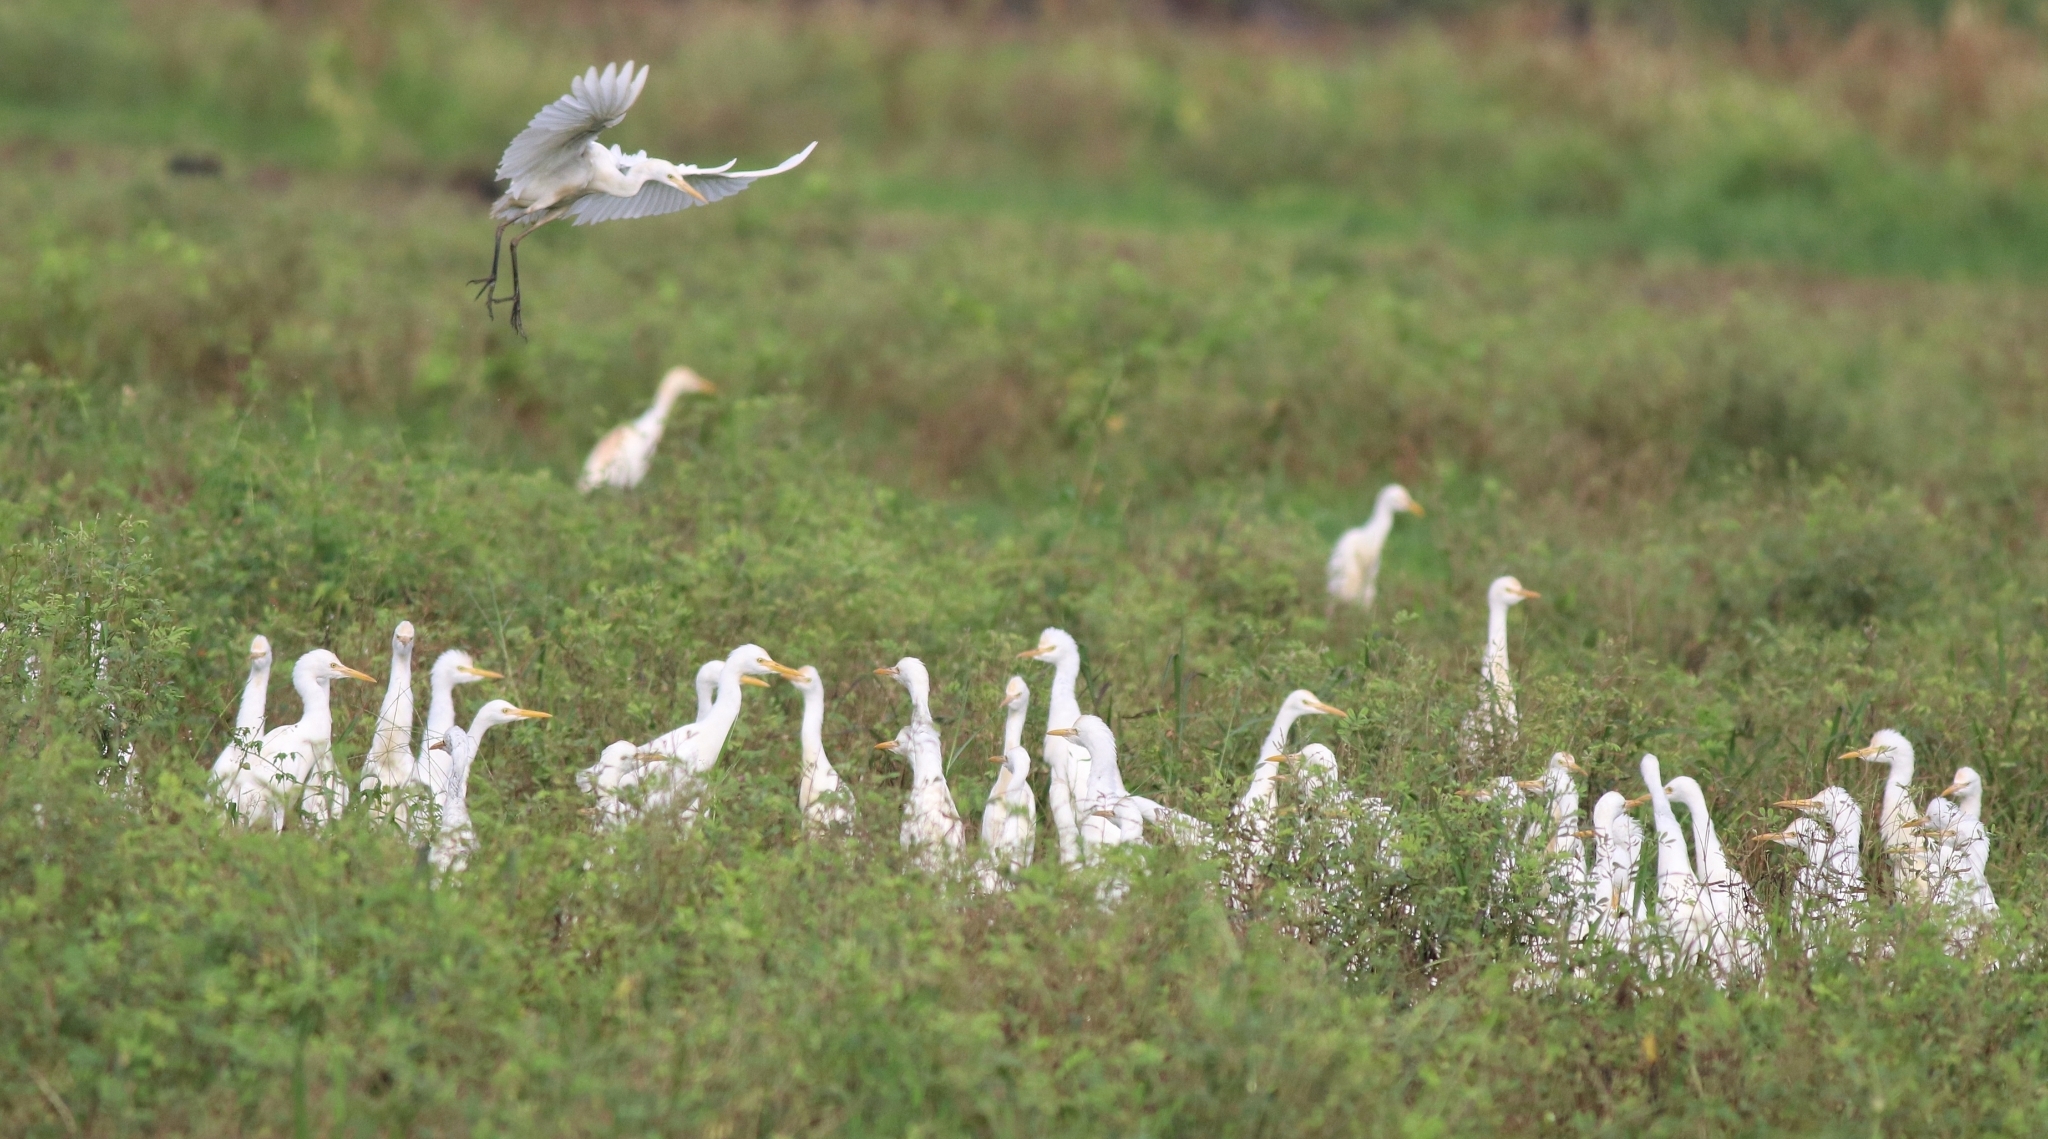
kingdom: Animalia
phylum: Chordata
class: Aves
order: Pelecaniformes
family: Ardeidae
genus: Bubulcus
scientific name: Bubulcus coromandus
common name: Eastern cattle egret
